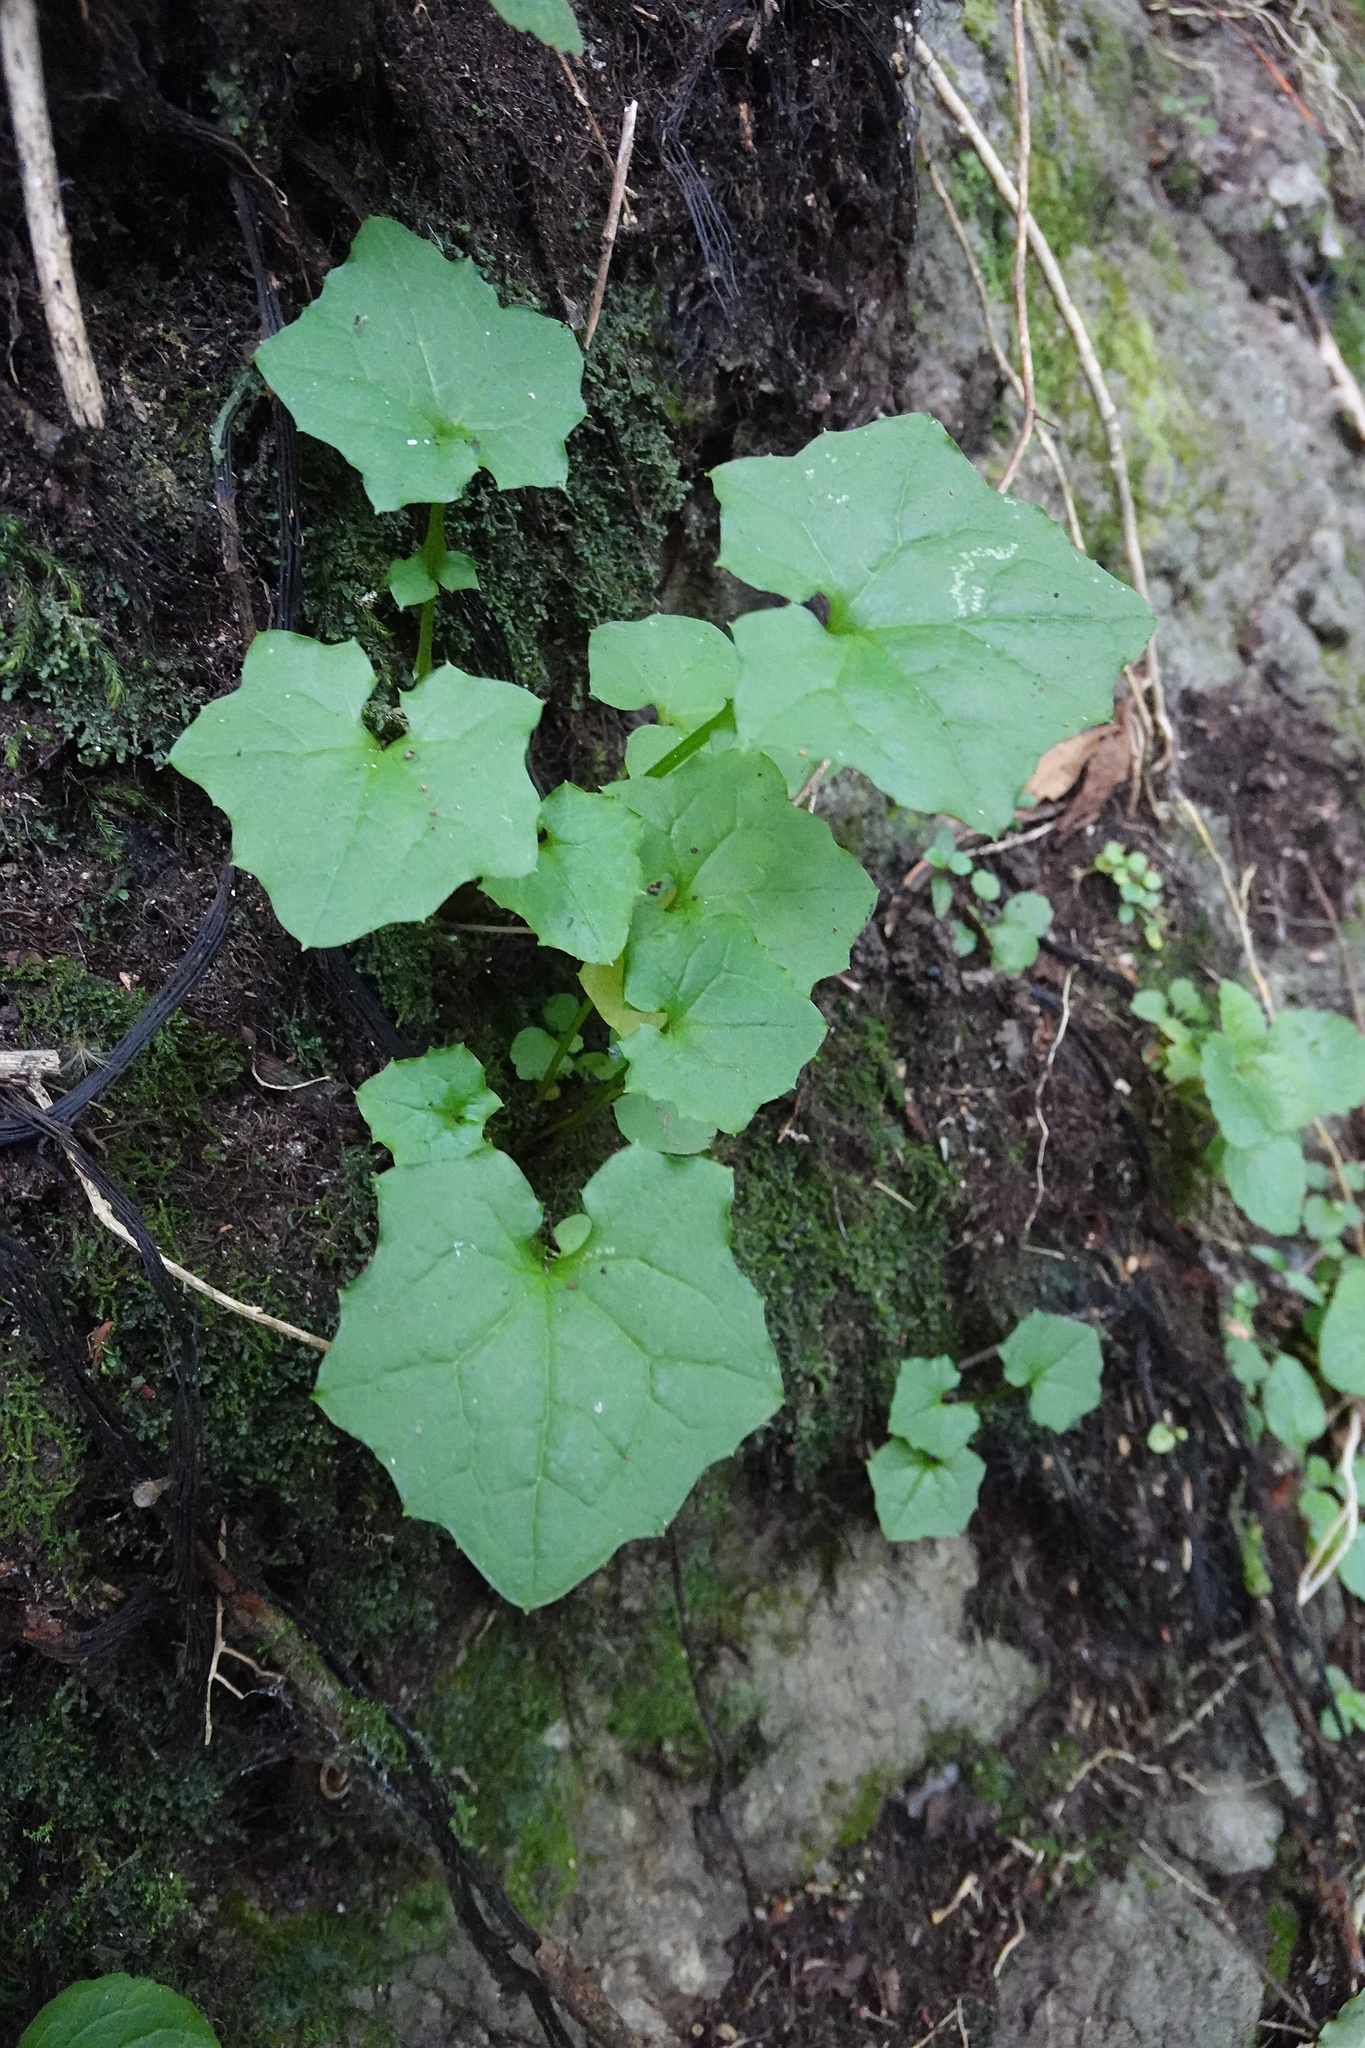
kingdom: Plantae
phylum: Tracheophyta
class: Magnoliopsida
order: Asterales
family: Asteraceae
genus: Mycelis
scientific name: Mycelis muralis
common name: Wall lettuce
